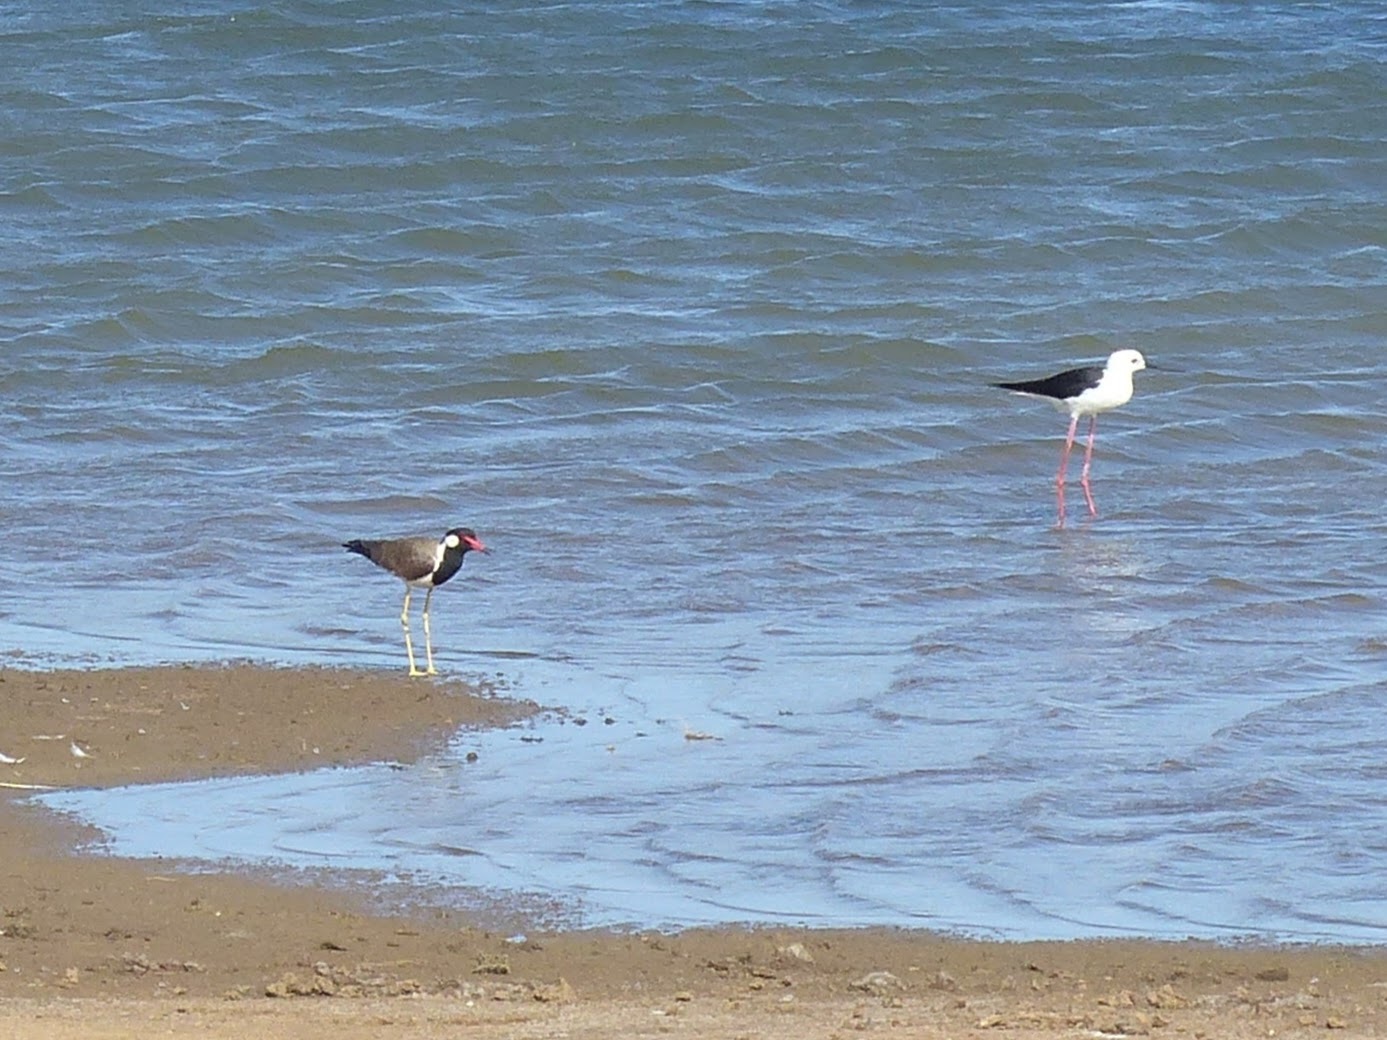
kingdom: Animalia
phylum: Chordata
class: Aves
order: Charadriiformes
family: Charadriidae
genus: Vanellus
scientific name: Vanellus indicus
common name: Red-wattled lapwing
